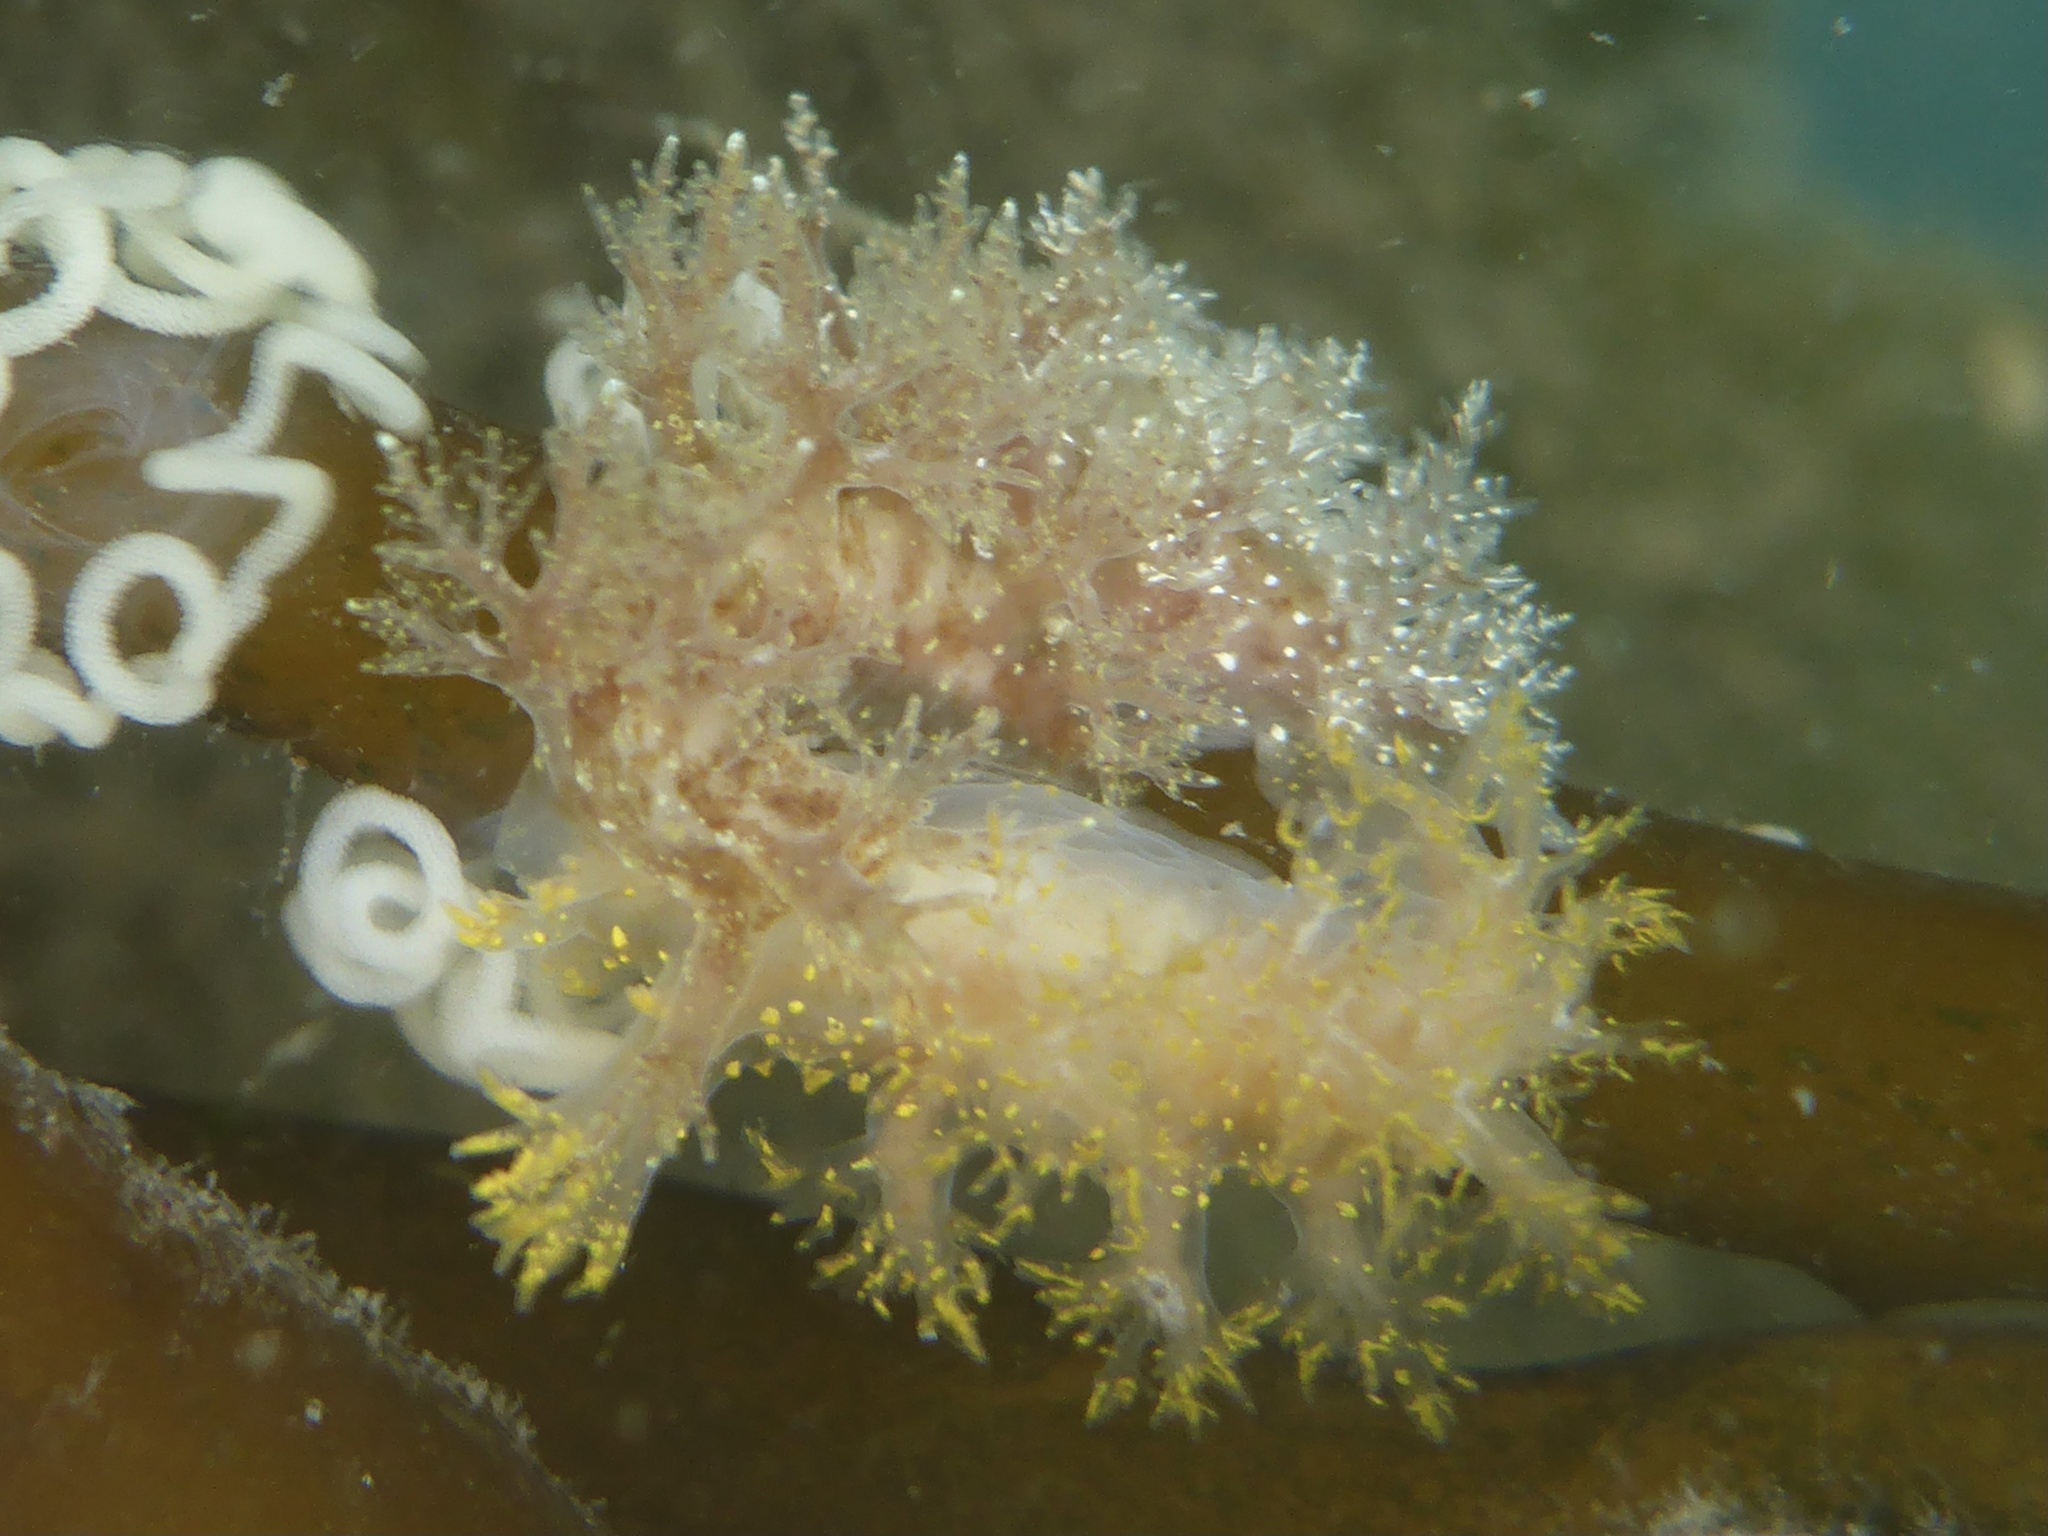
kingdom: Animalia
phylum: Mollusca
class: Gastropoda
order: Nudibranchia
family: Dendronotidae
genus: Dendronotus
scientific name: Dendronotus venustus
